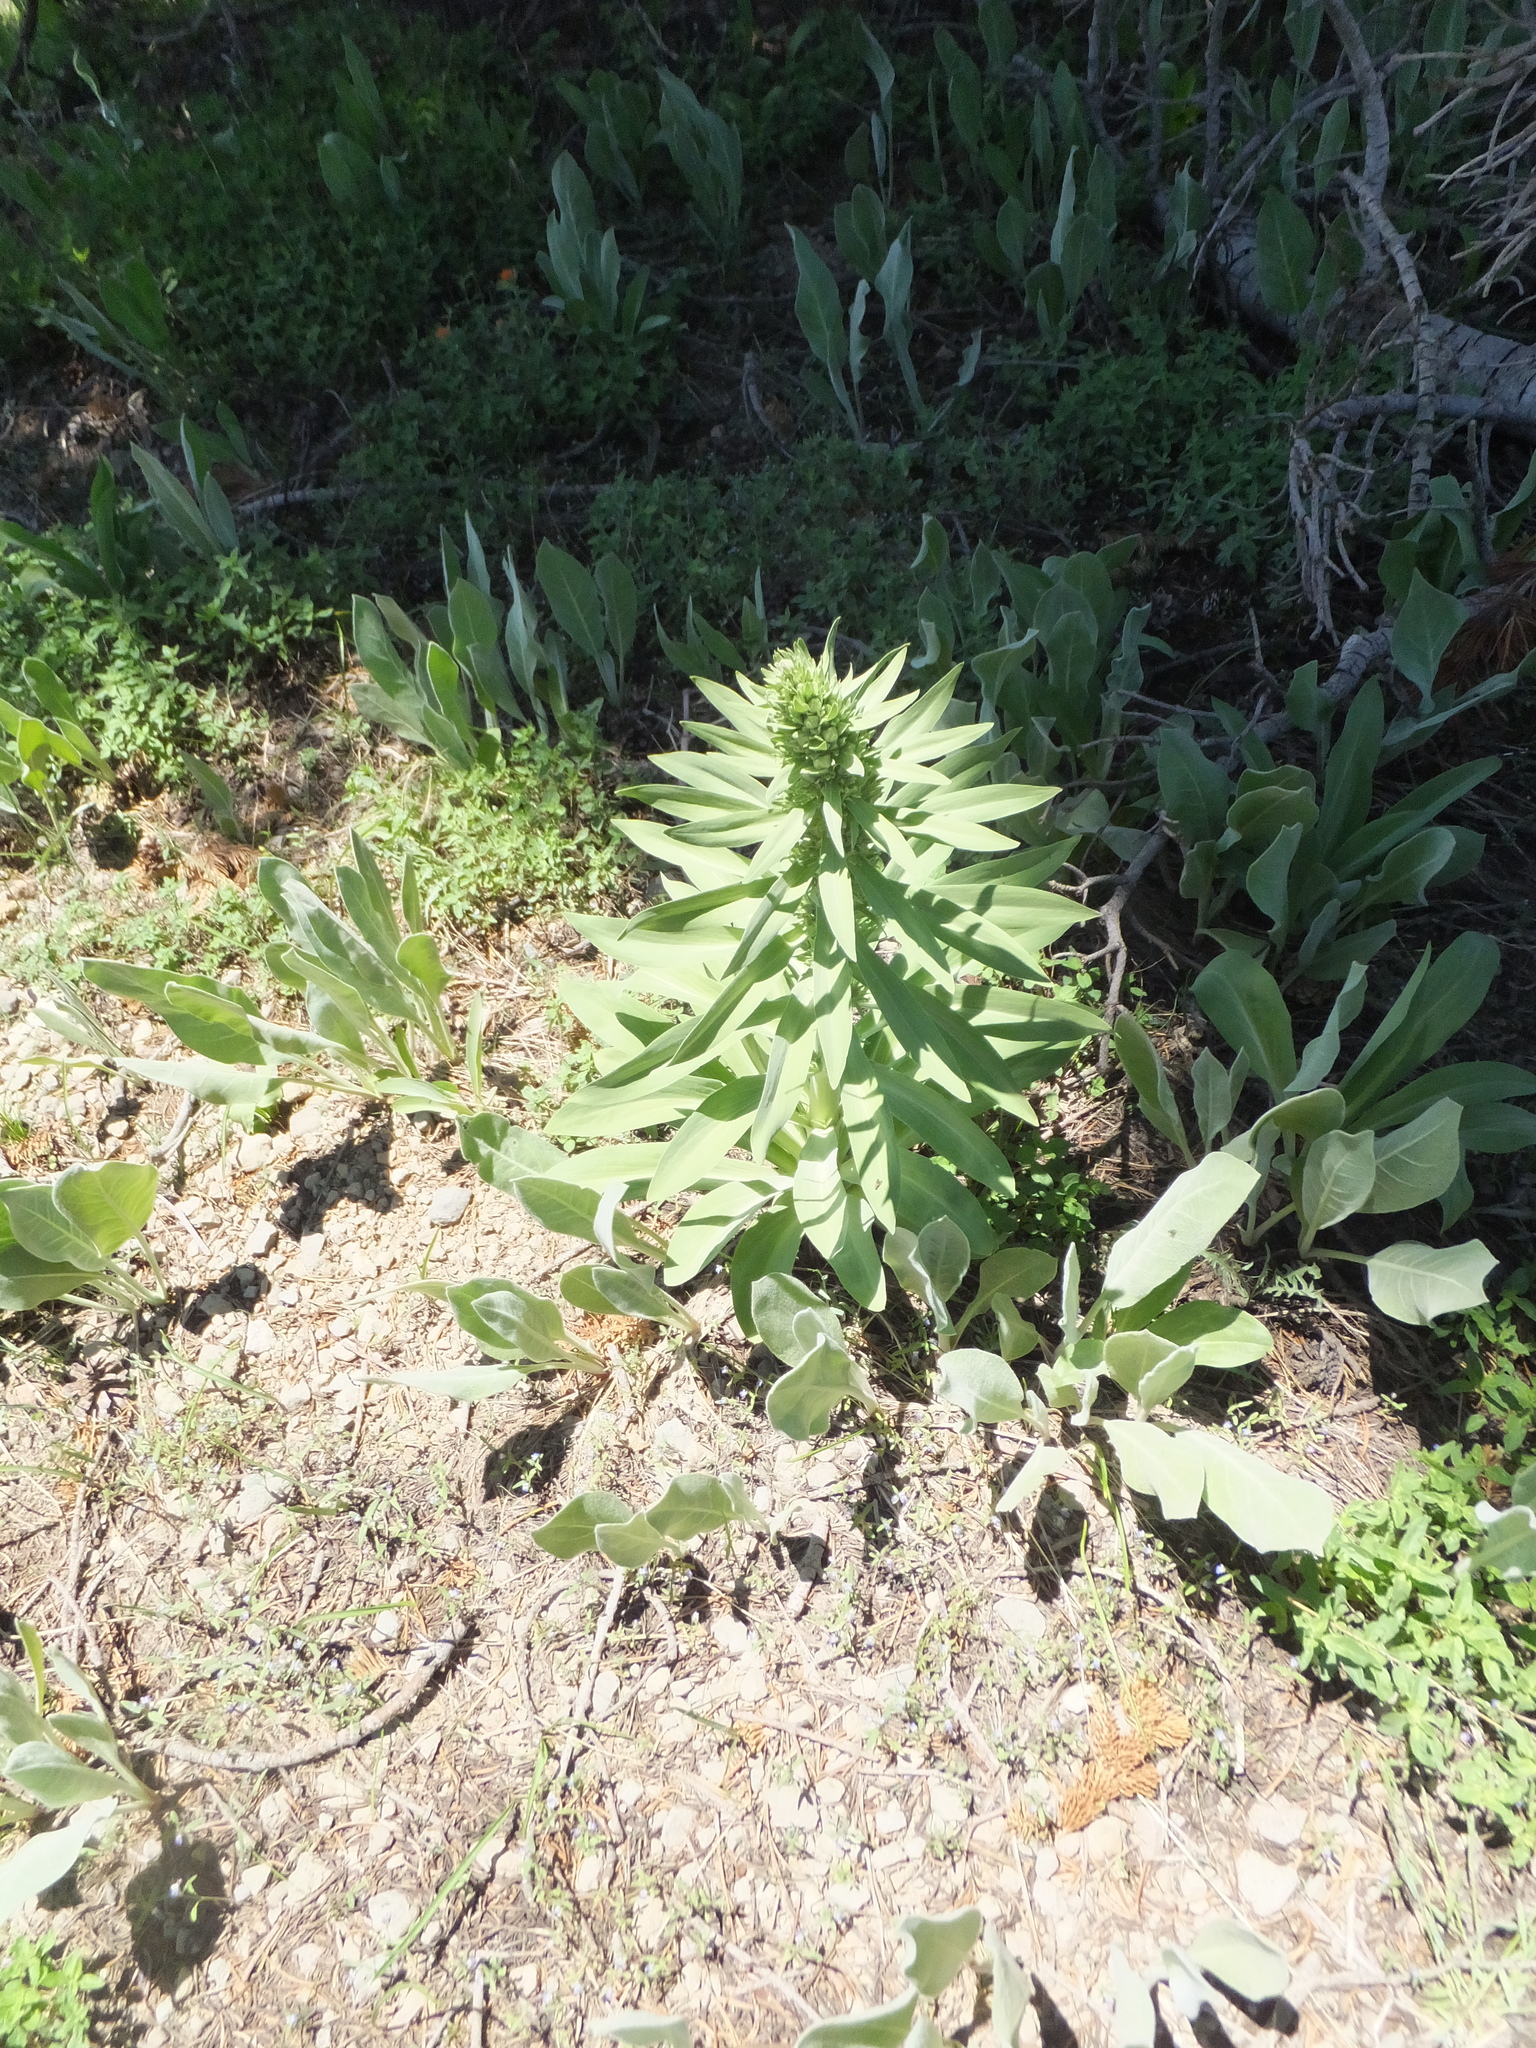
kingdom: Plantae
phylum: Tracheophyta
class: Magnoliopsida
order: Gentianales
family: Gentianaceae
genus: Frasera
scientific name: Frasera speciosa
